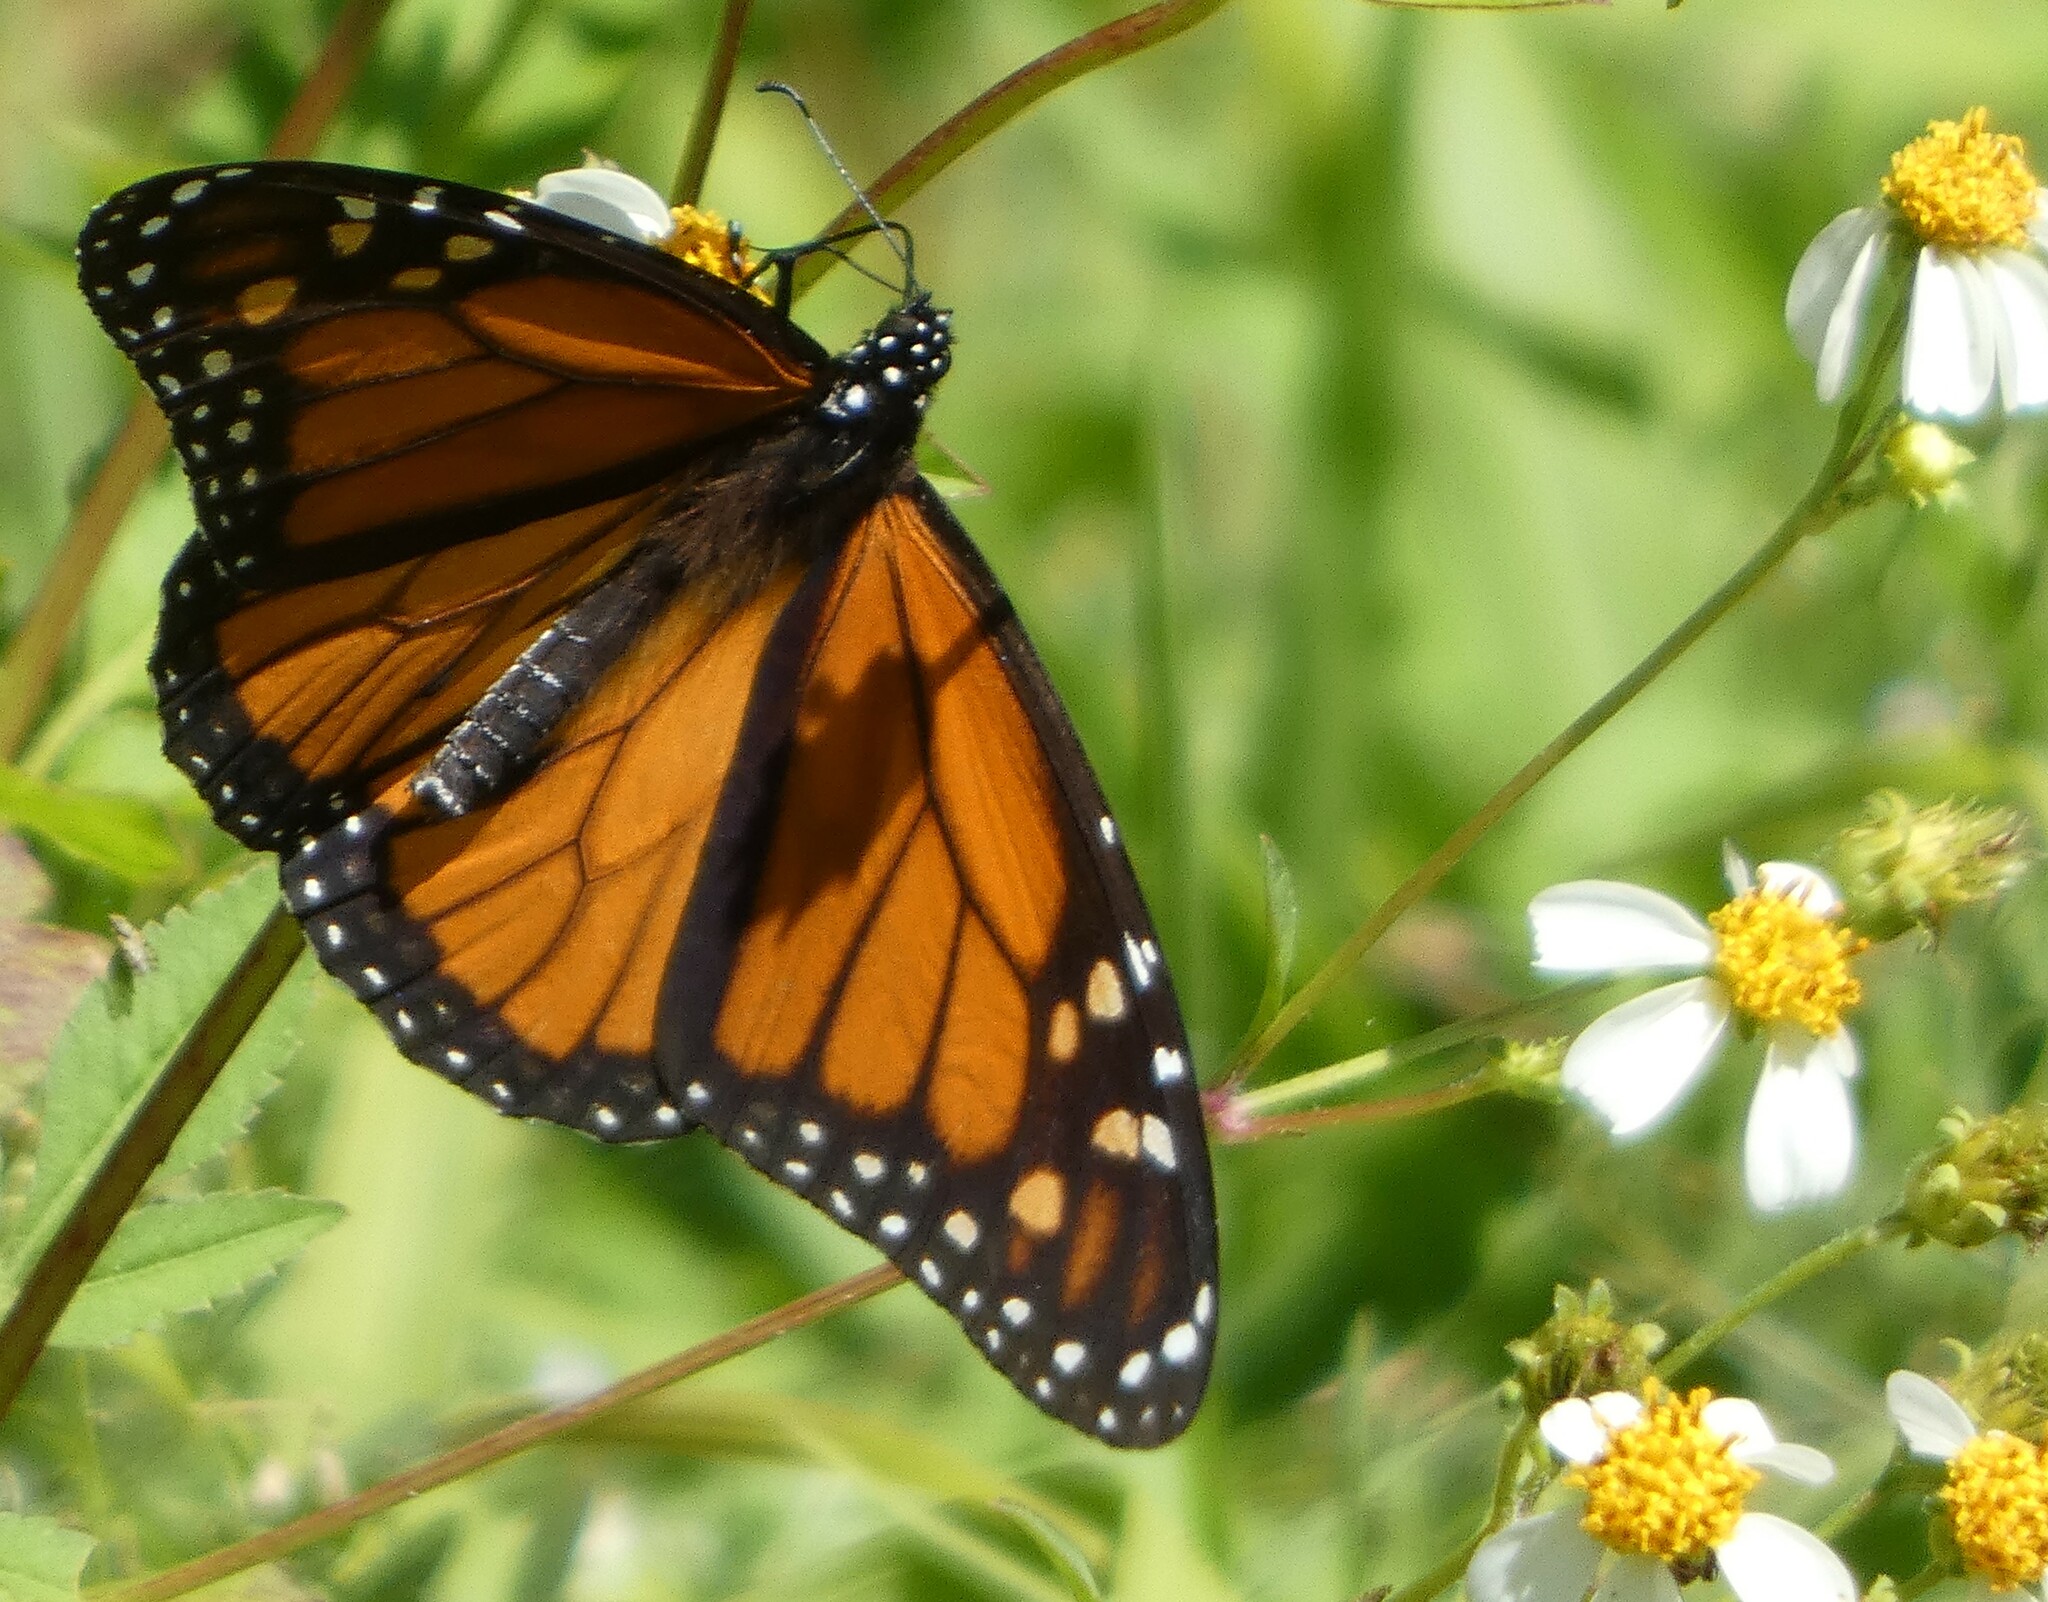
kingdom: Animalia
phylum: Arthropoda
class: Insecta
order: Lepidoptera
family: Nymphalidae
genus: Danaus
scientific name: Danaus plexippus
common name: Monarch
